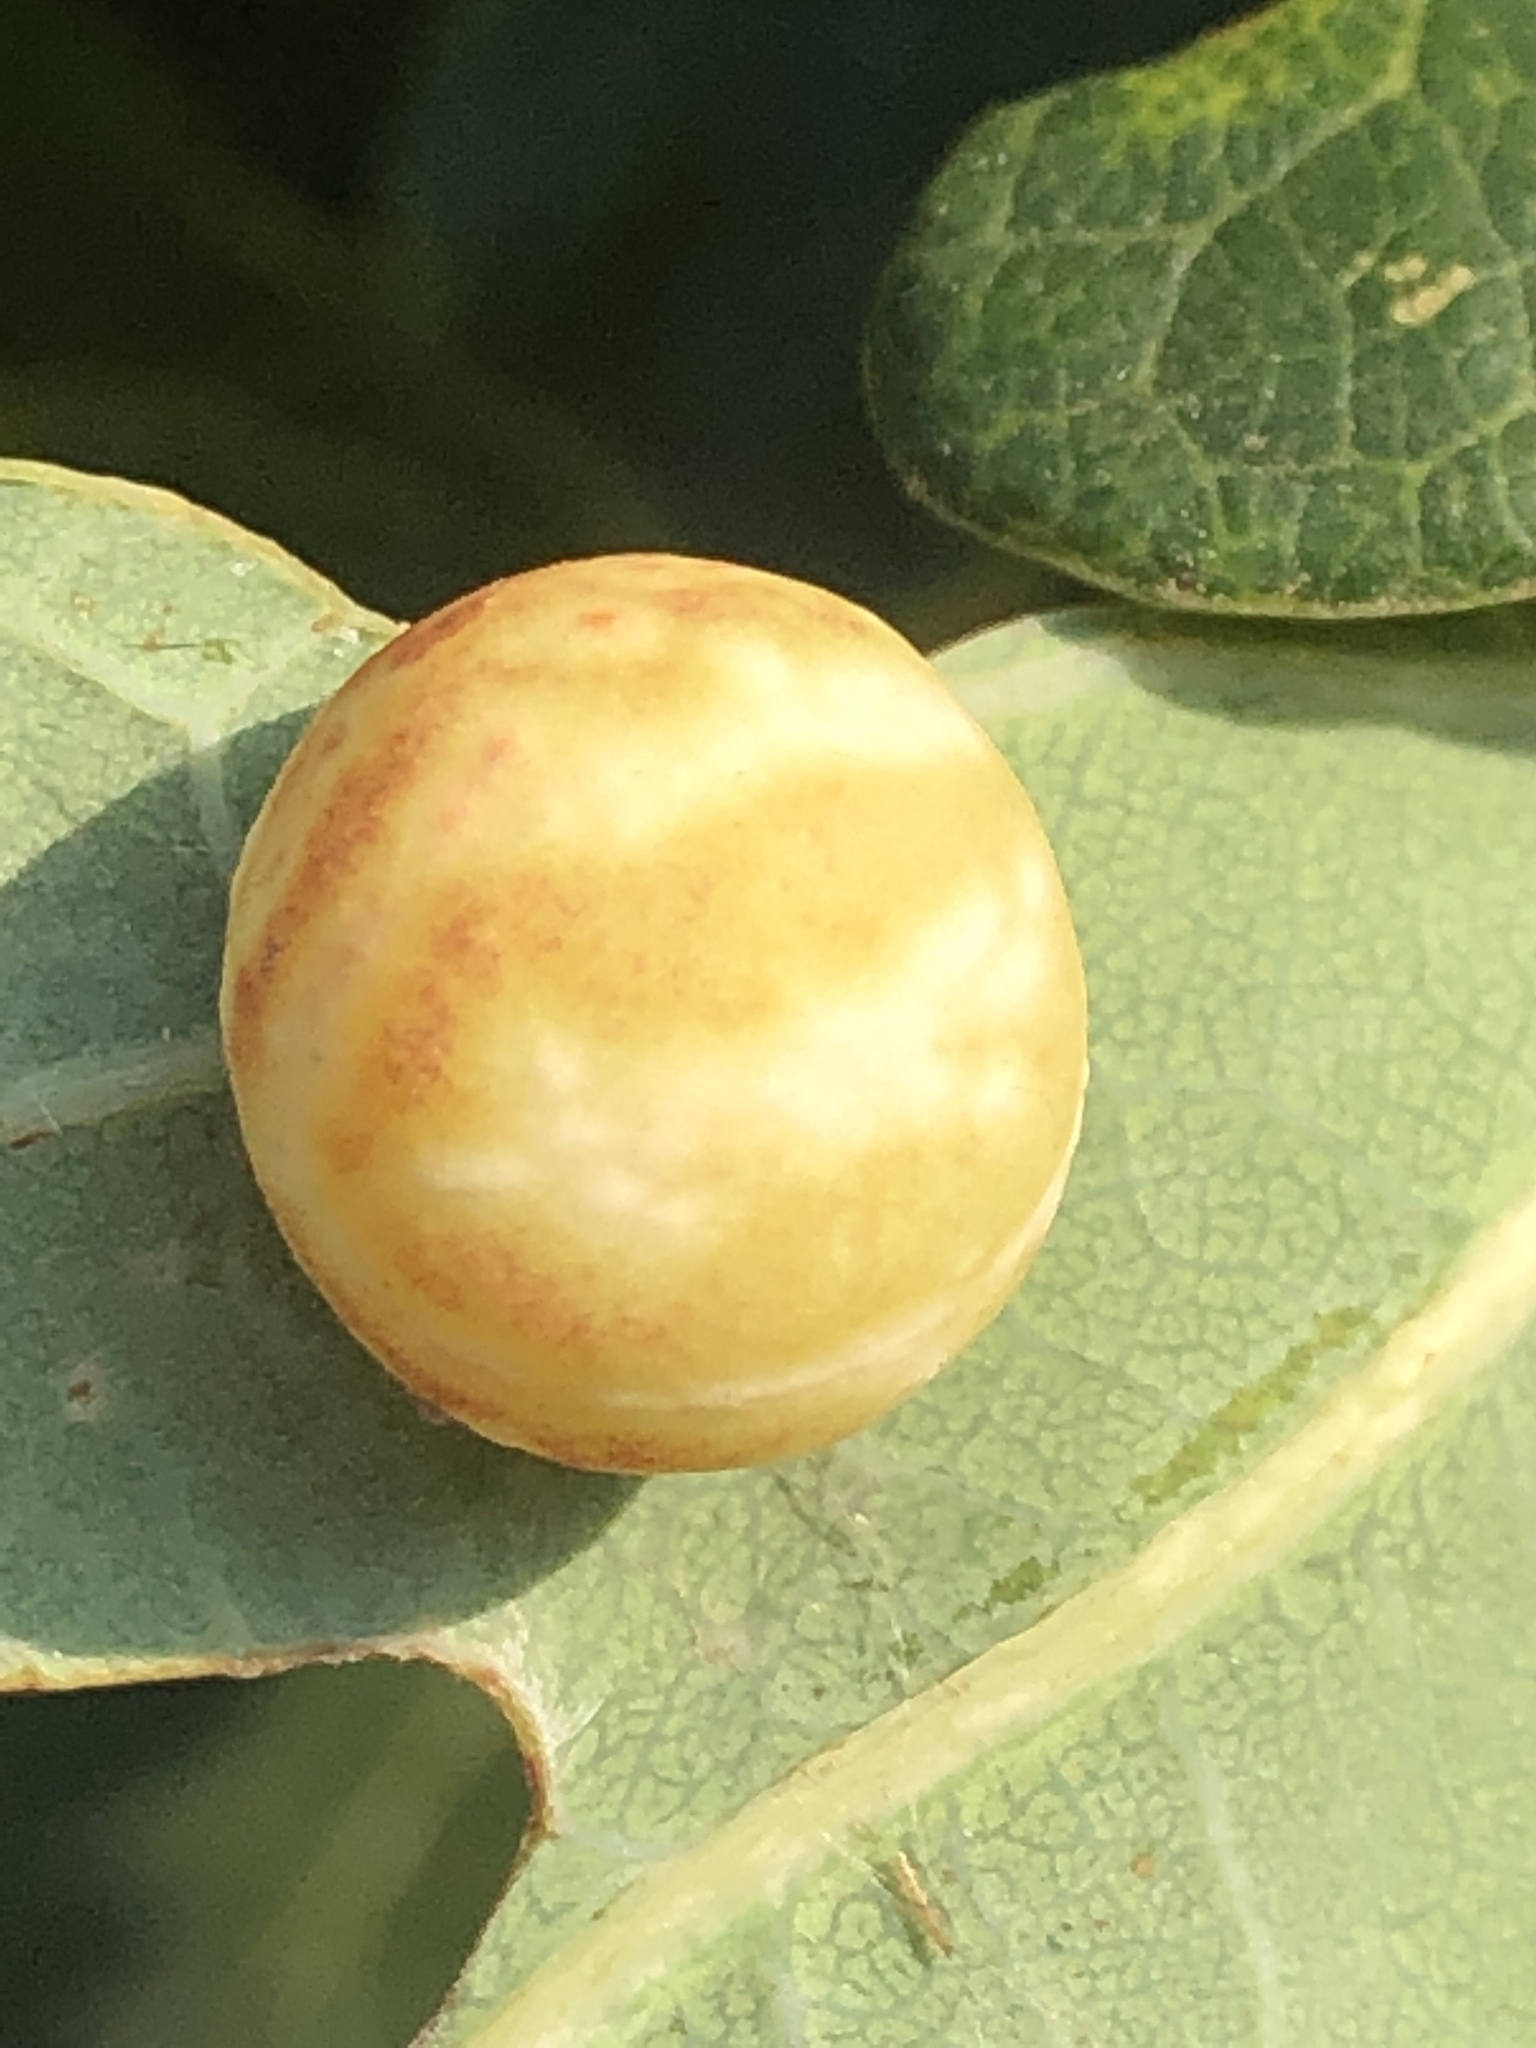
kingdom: Animalia
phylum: Arthropoda
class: Insecta
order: Hymenoptera
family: Cynipidae
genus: Cynips
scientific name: Cynips quercusfolii
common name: Cherry gall
